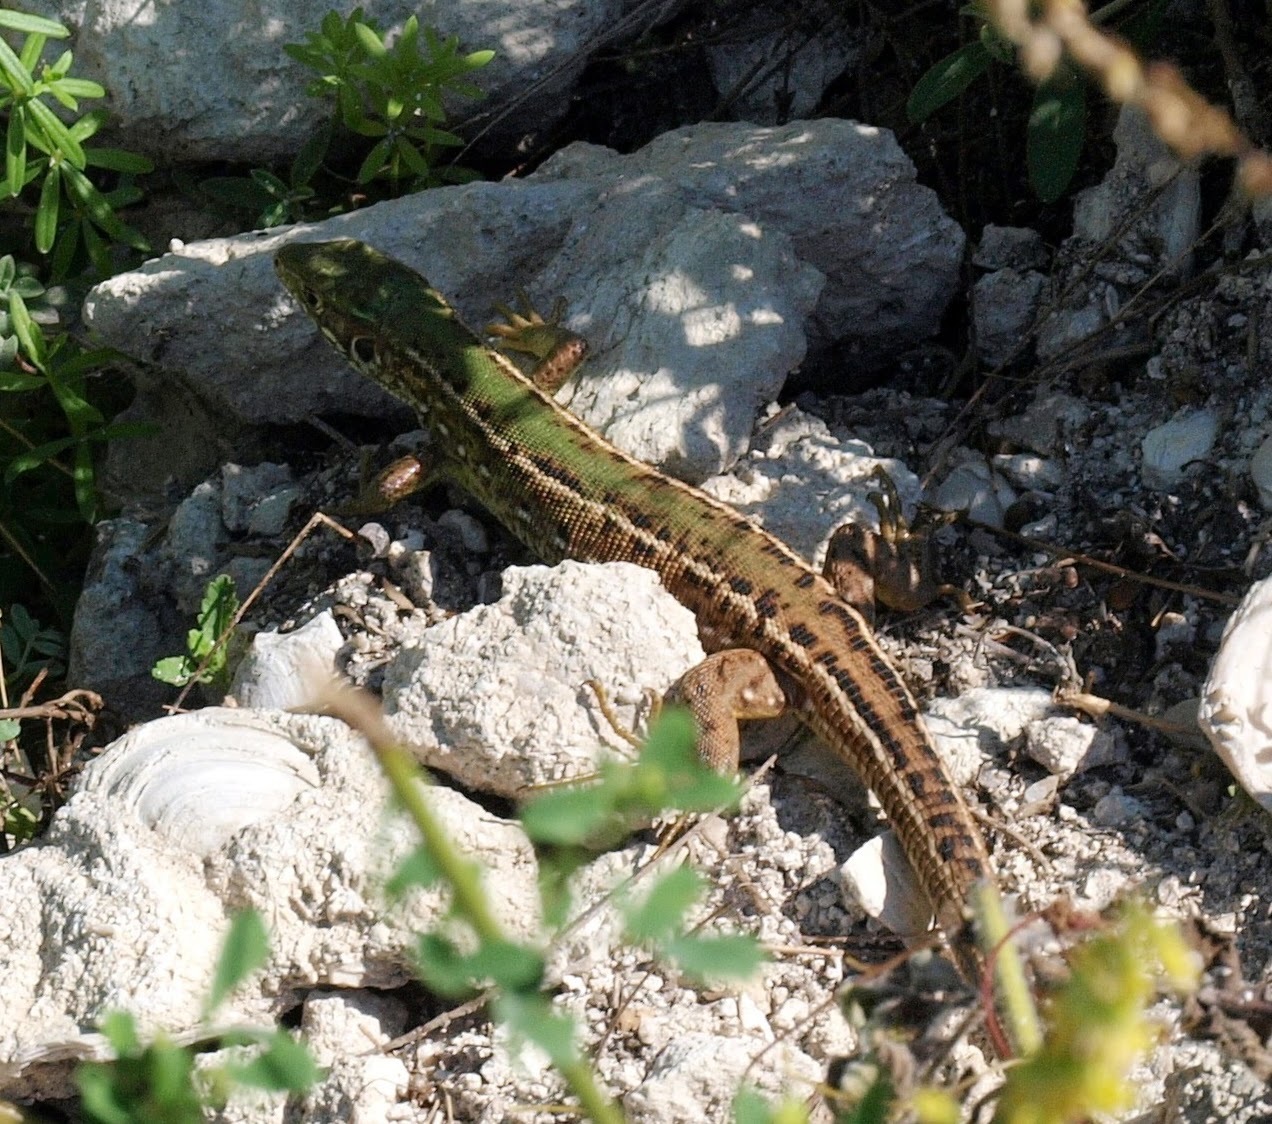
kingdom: Animalia
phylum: Chordata
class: Squamata
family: Lacertidae
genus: Lacerta
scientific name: Lacerta viridis
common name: European green lizard
